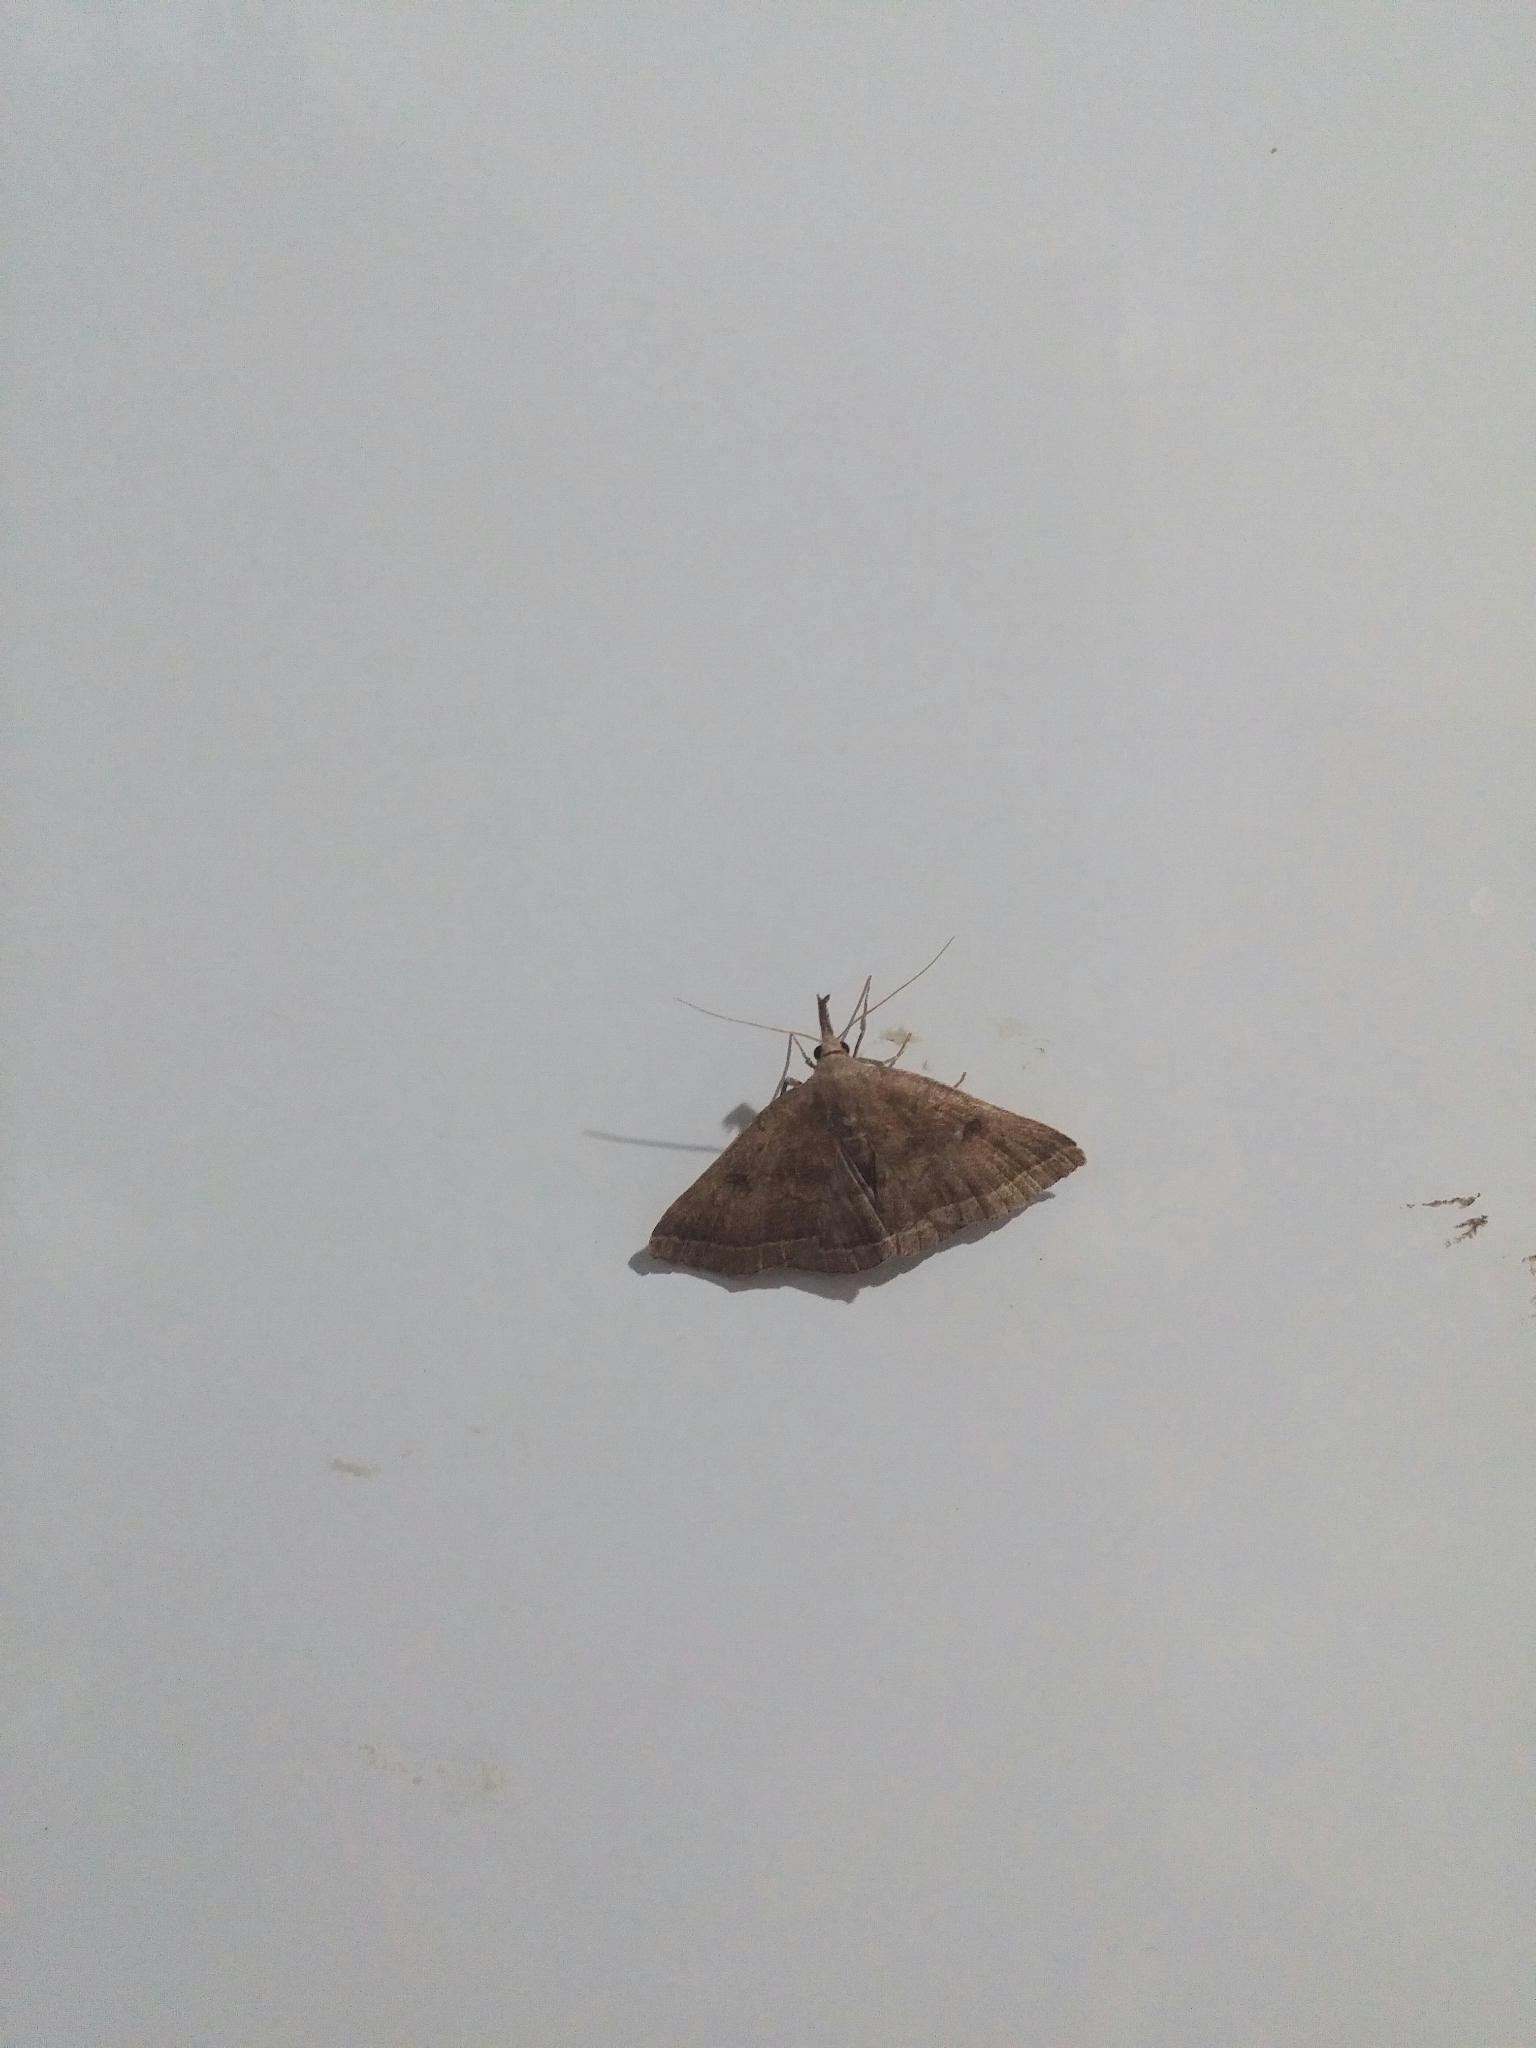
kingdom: Animalia
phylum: Arthropoda
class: Insecta
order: Lepidoptera
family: Erebidae
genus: Pechipogo
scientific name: Pechipogo plumigeralis
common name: Plumed fan-foot
